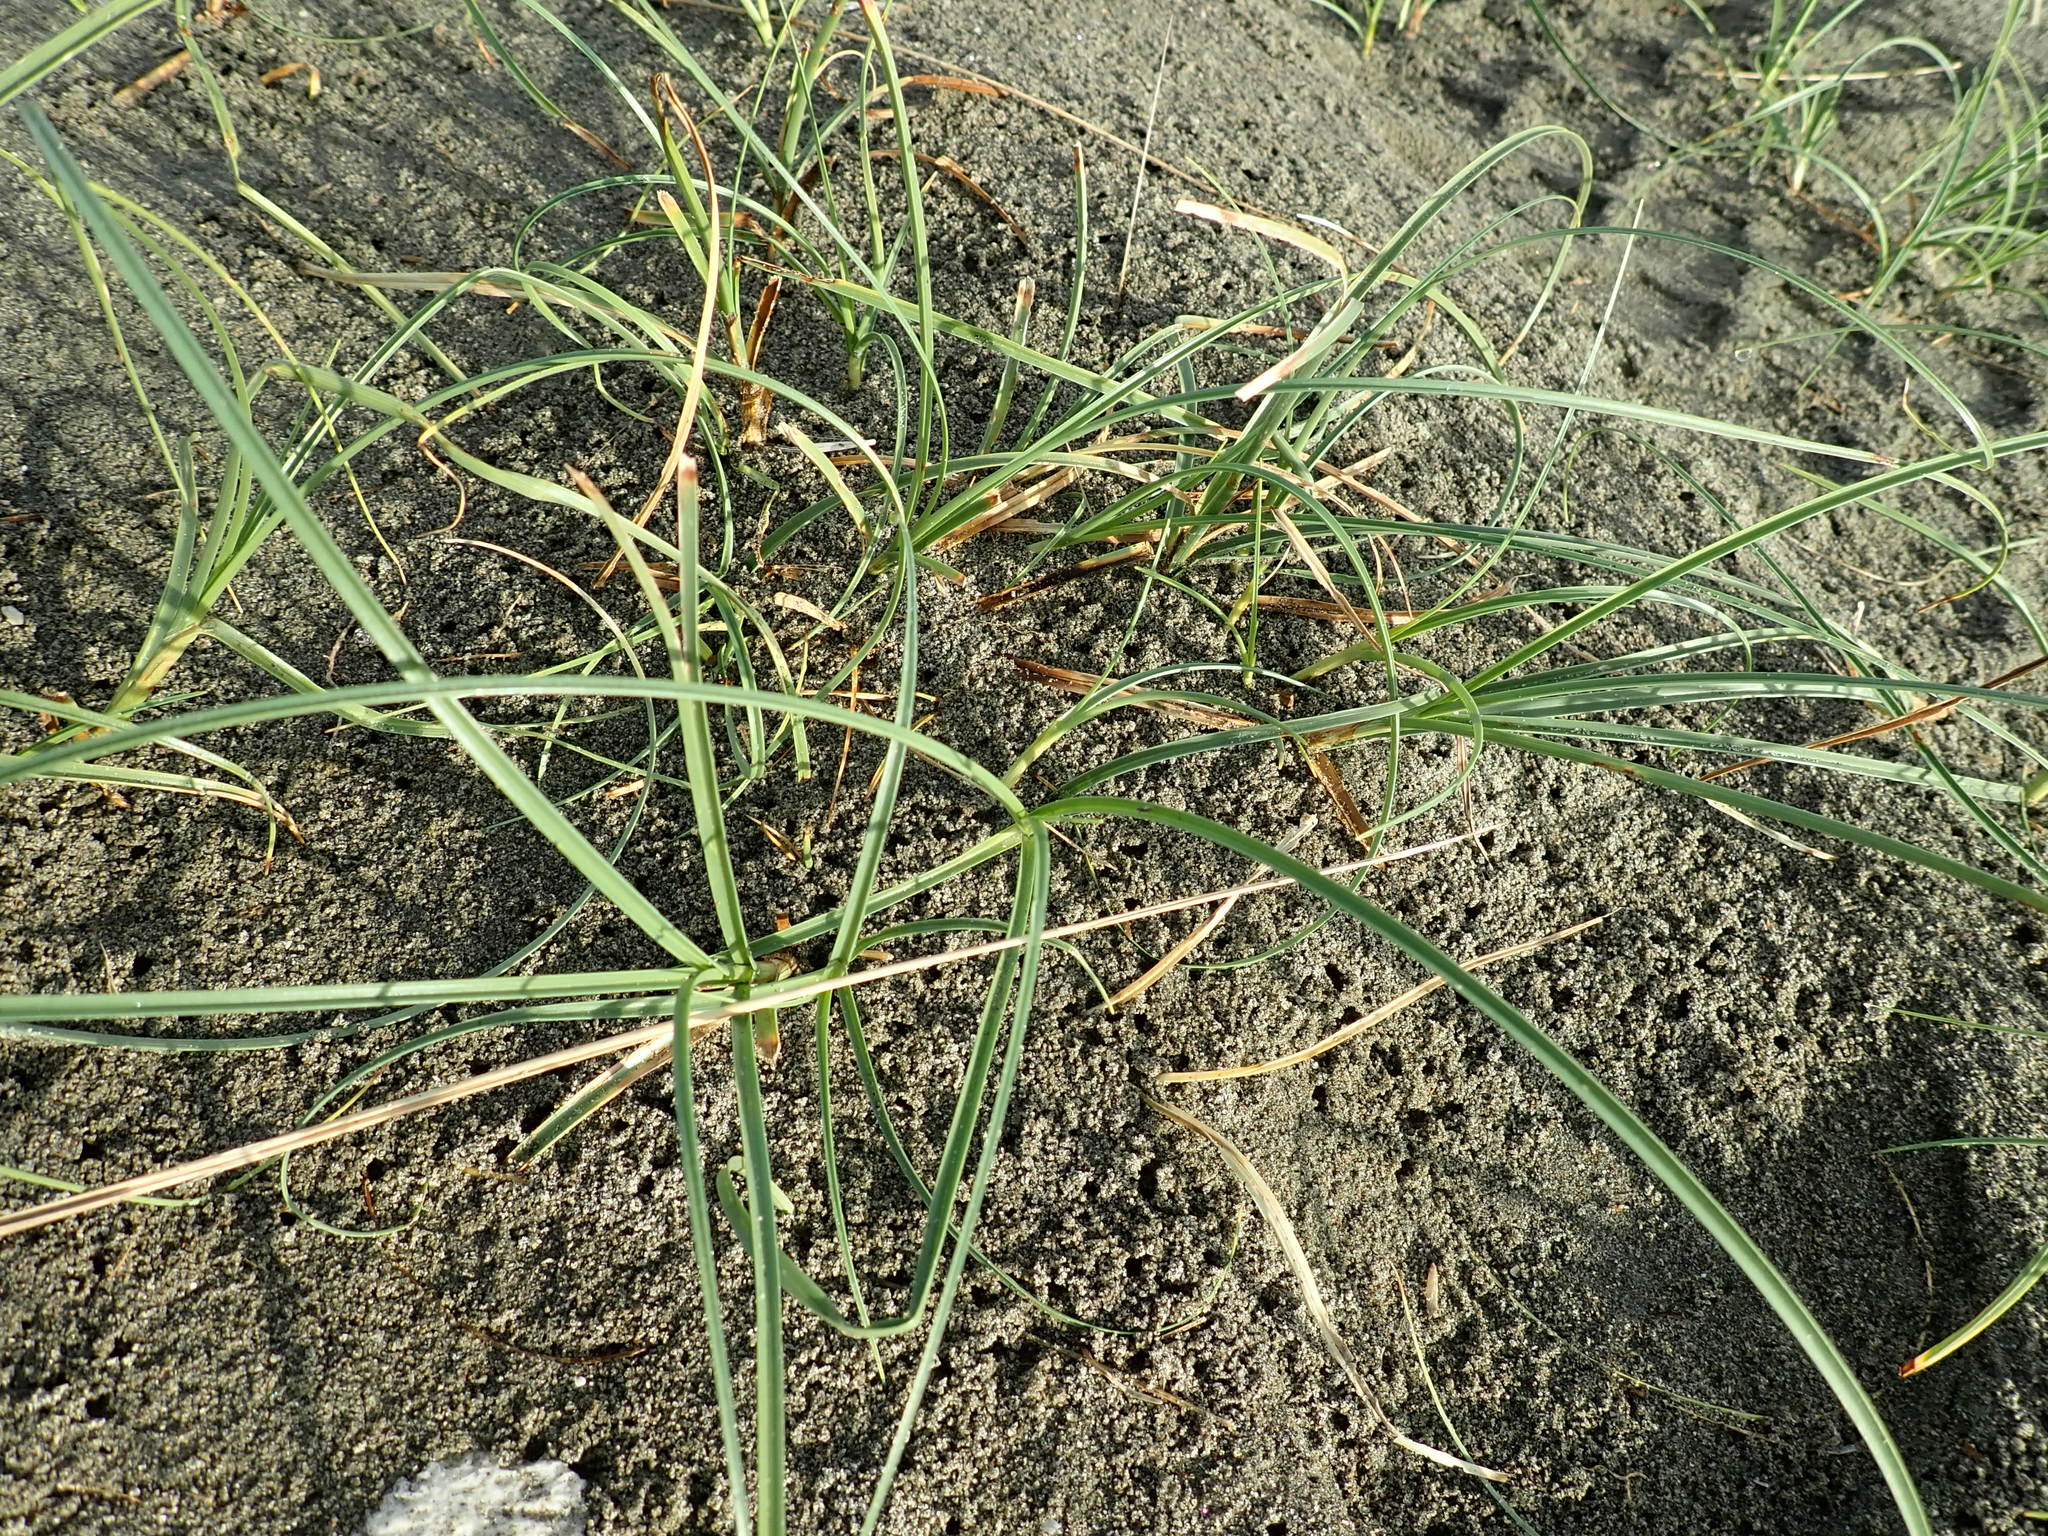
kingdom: Plantae
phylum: Tracheophyta
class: Liliopsida
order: Poales
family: Cyperaceae
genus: Carex
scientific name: Carex pumila
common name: Dwarf sedge
